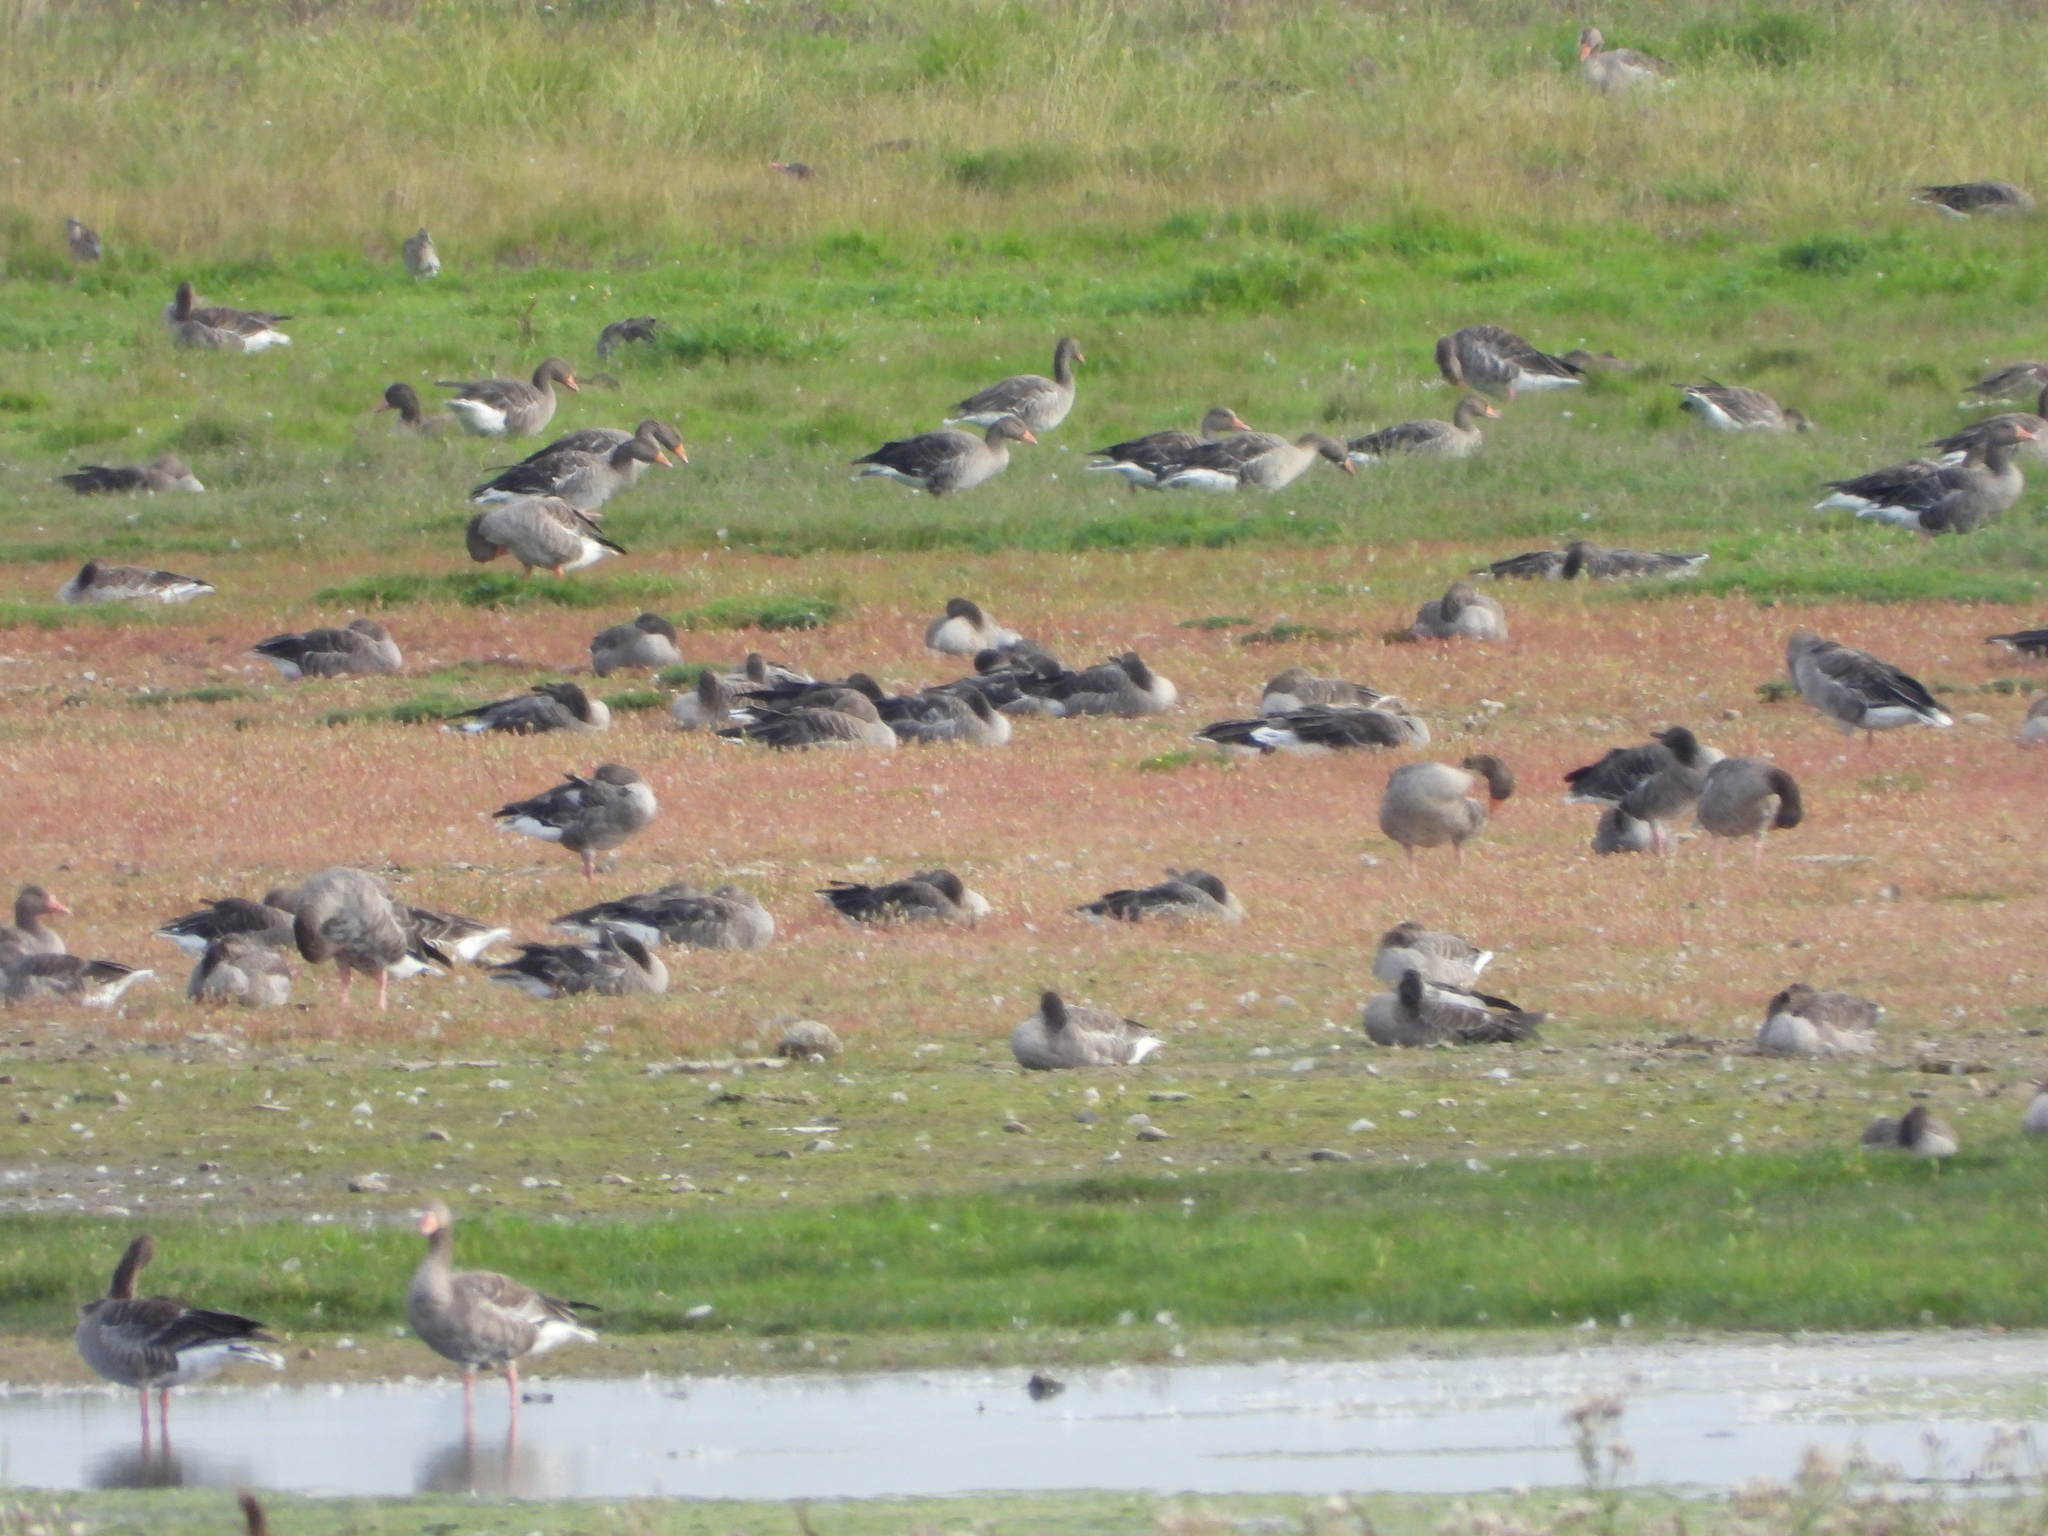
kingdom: Animalia
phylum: Chordata
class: Aves
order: Anseriformes
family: Anatidae
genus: Anser
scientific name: Anser anser
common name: Greylag goose
